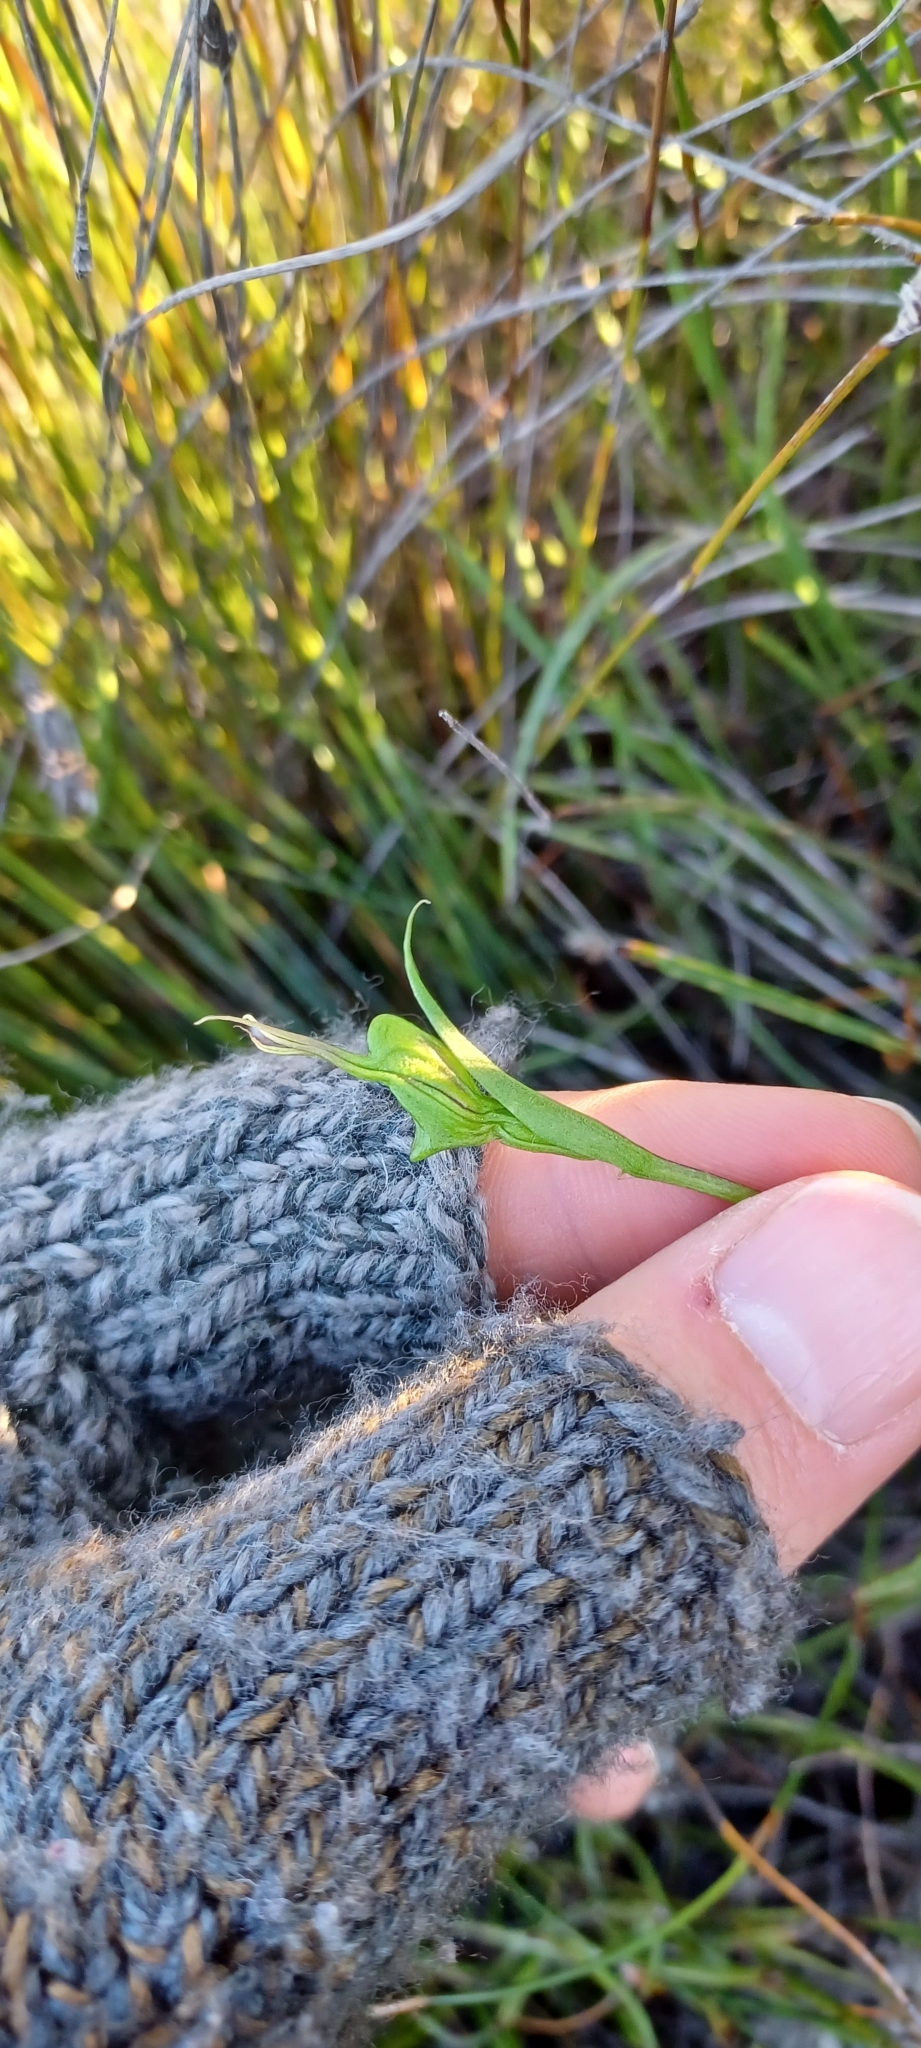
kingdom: Plantae
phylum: Tracheophyta
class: Liliopsida
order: Asparagales
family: Orchidaceae
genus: Disperis
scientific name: Disperis capensis
